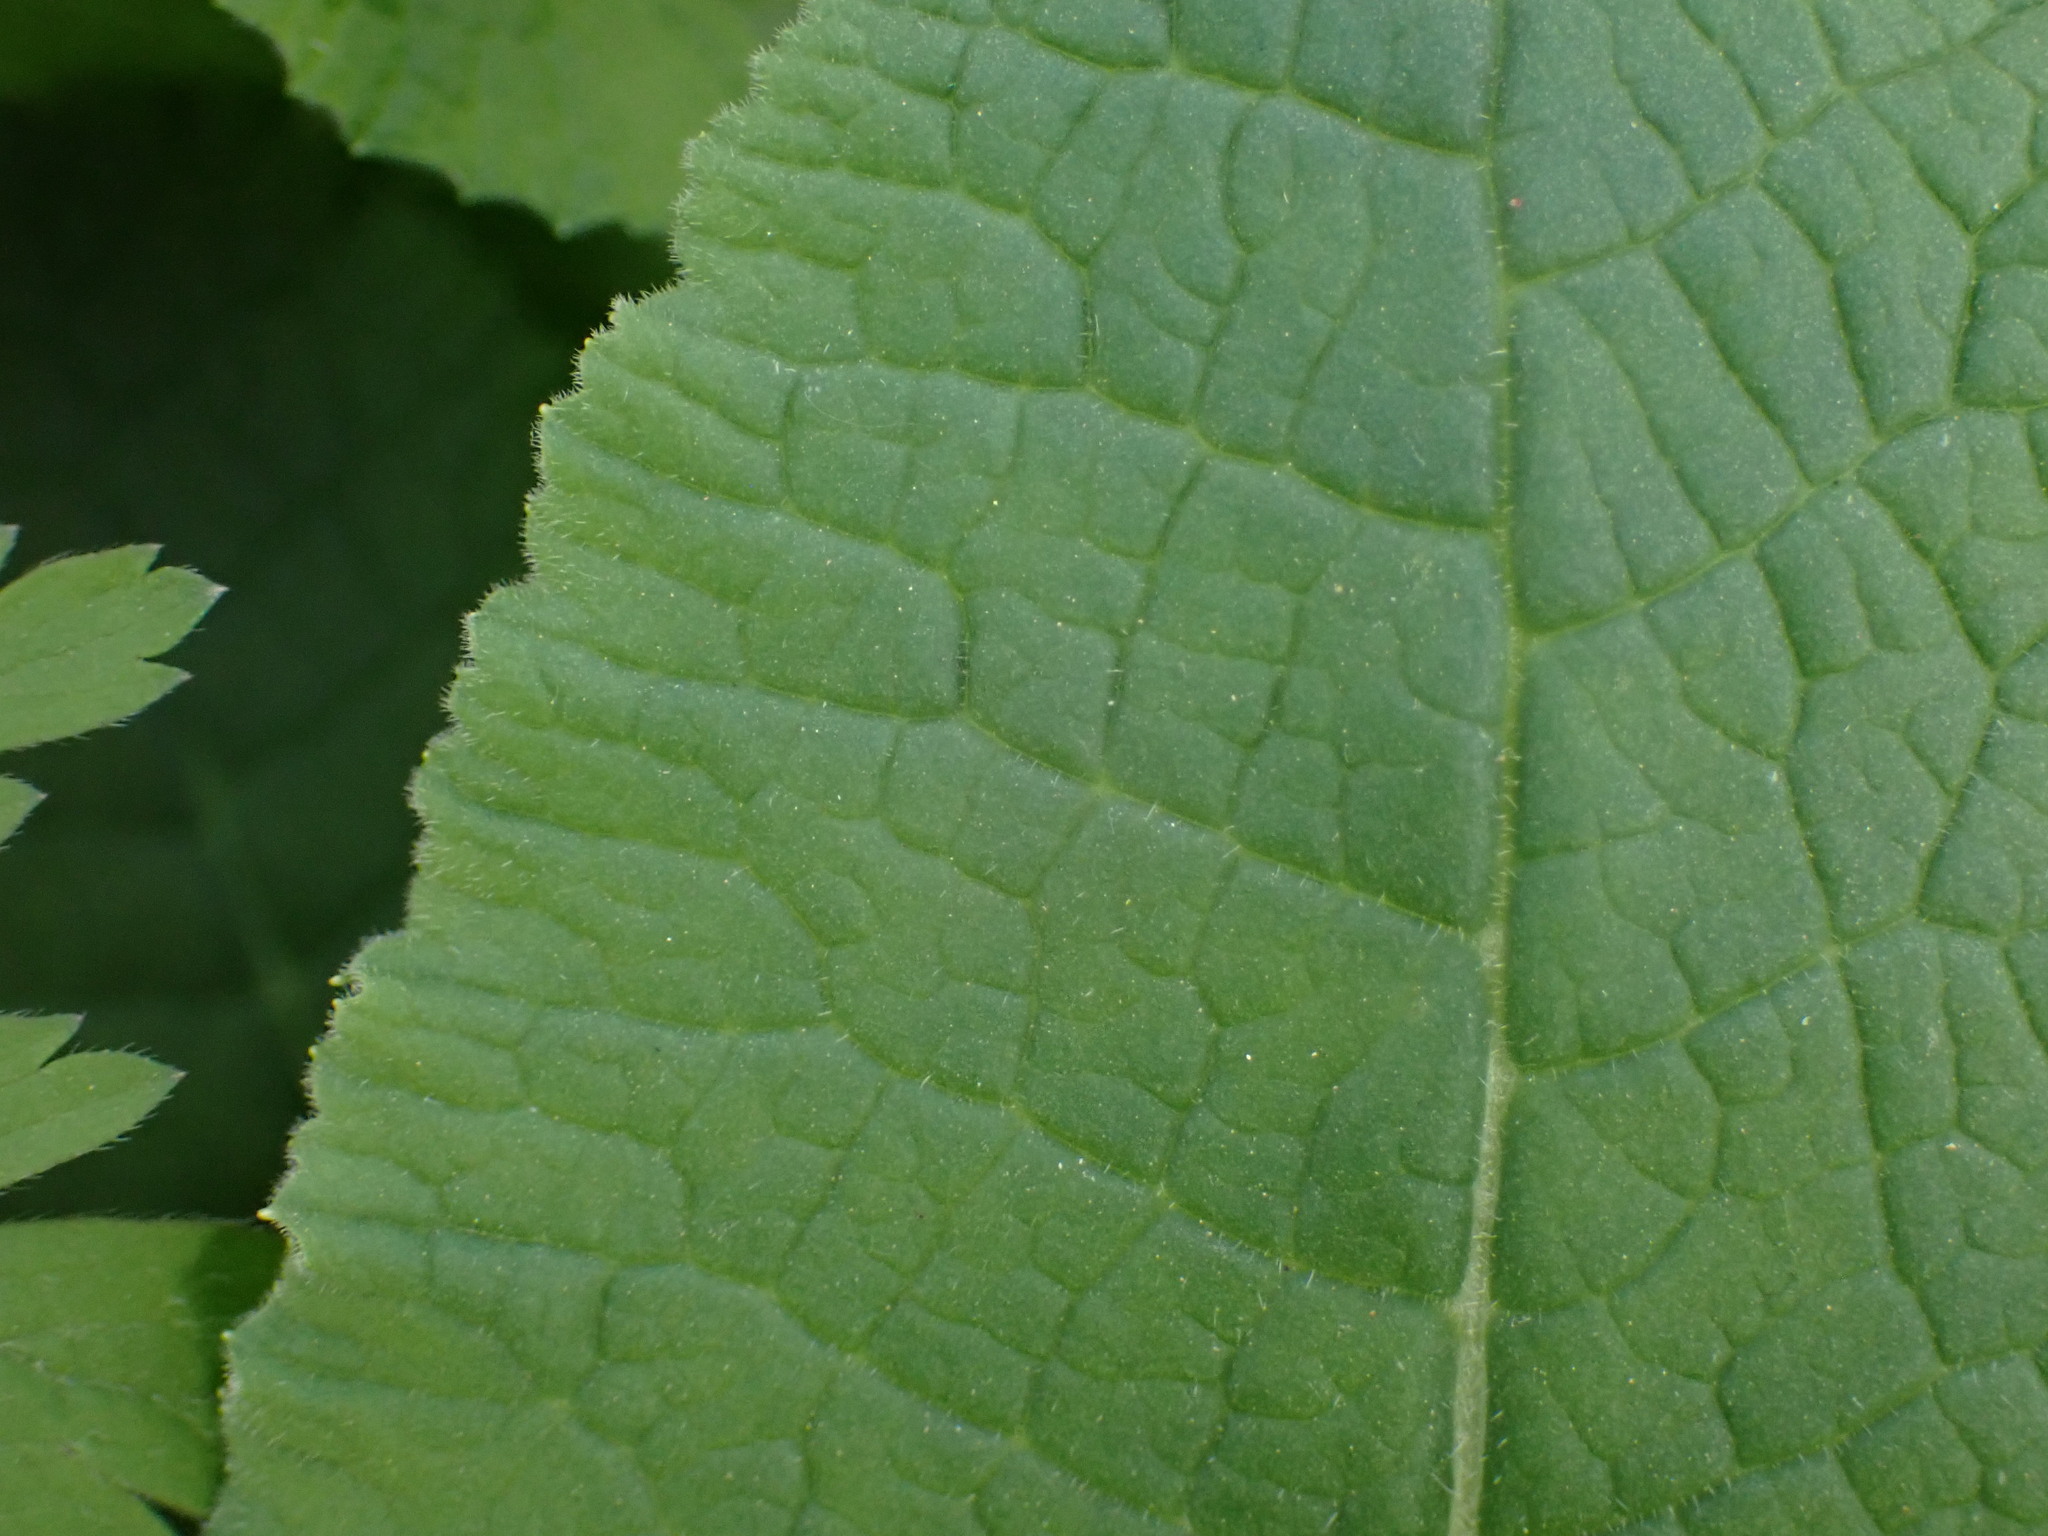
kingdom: Plantae
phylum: Tracheophyta
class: Magnoliopsida
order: Ericales
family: Primulaceae
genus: Primula
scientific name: Primula elatior
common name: Oxlip
